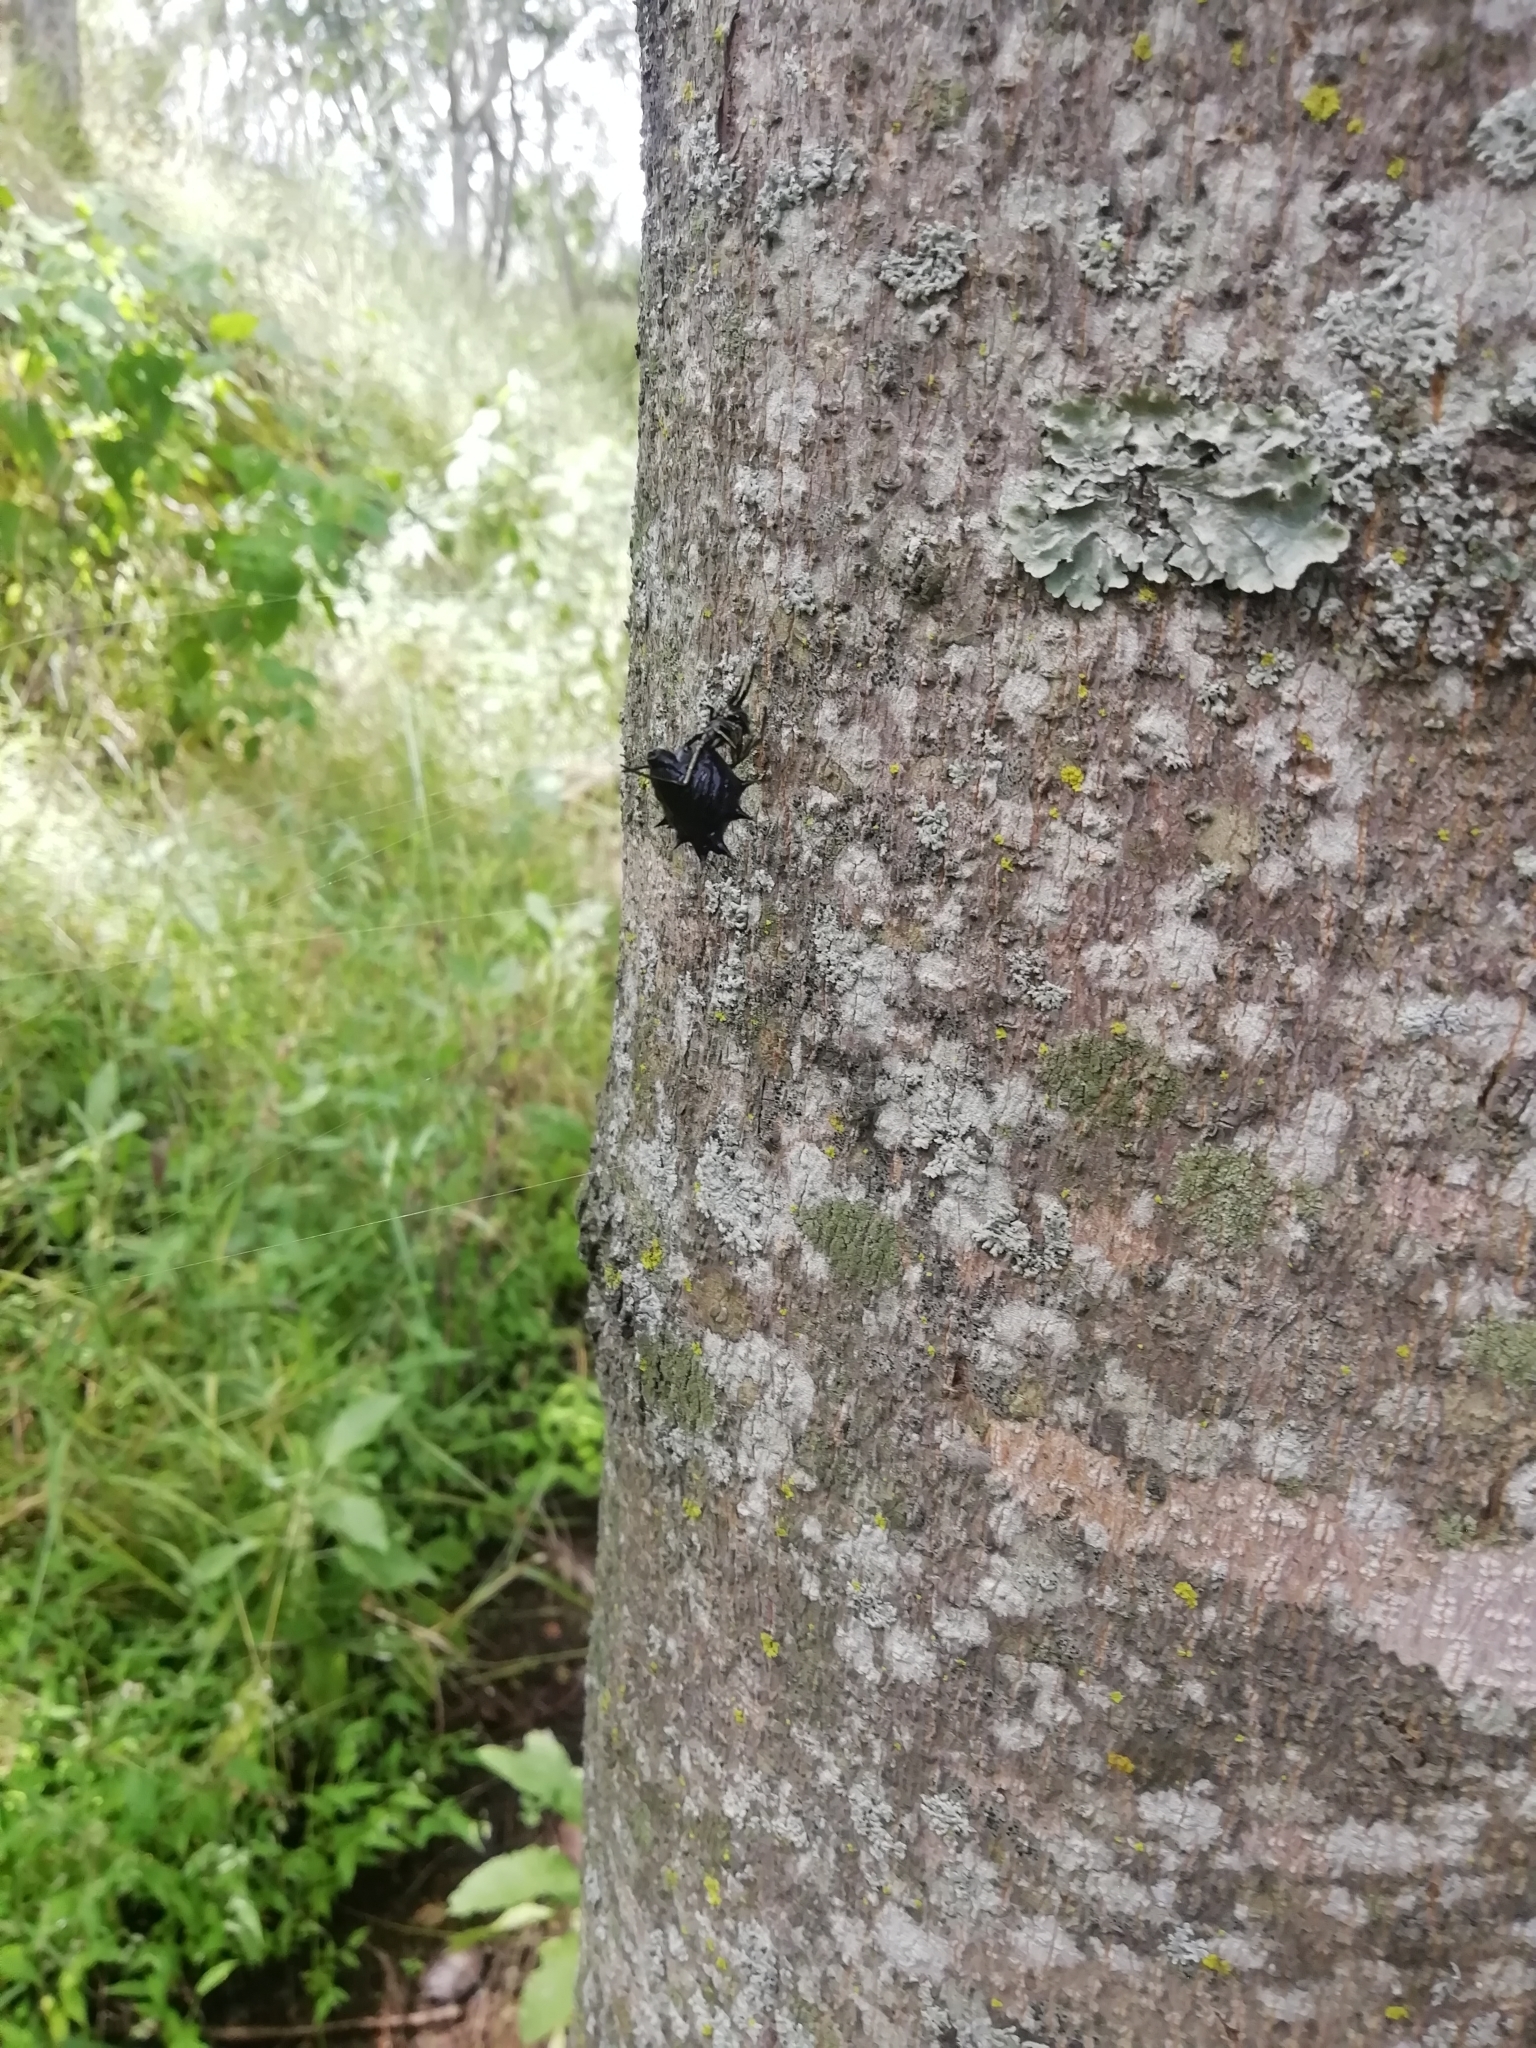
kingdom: Animalia
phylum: Arthropoda
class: Arachnida
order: Araneae
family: Araneidae
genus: Micrathena
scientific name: Micrathena gracilis
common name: Orb weavers
